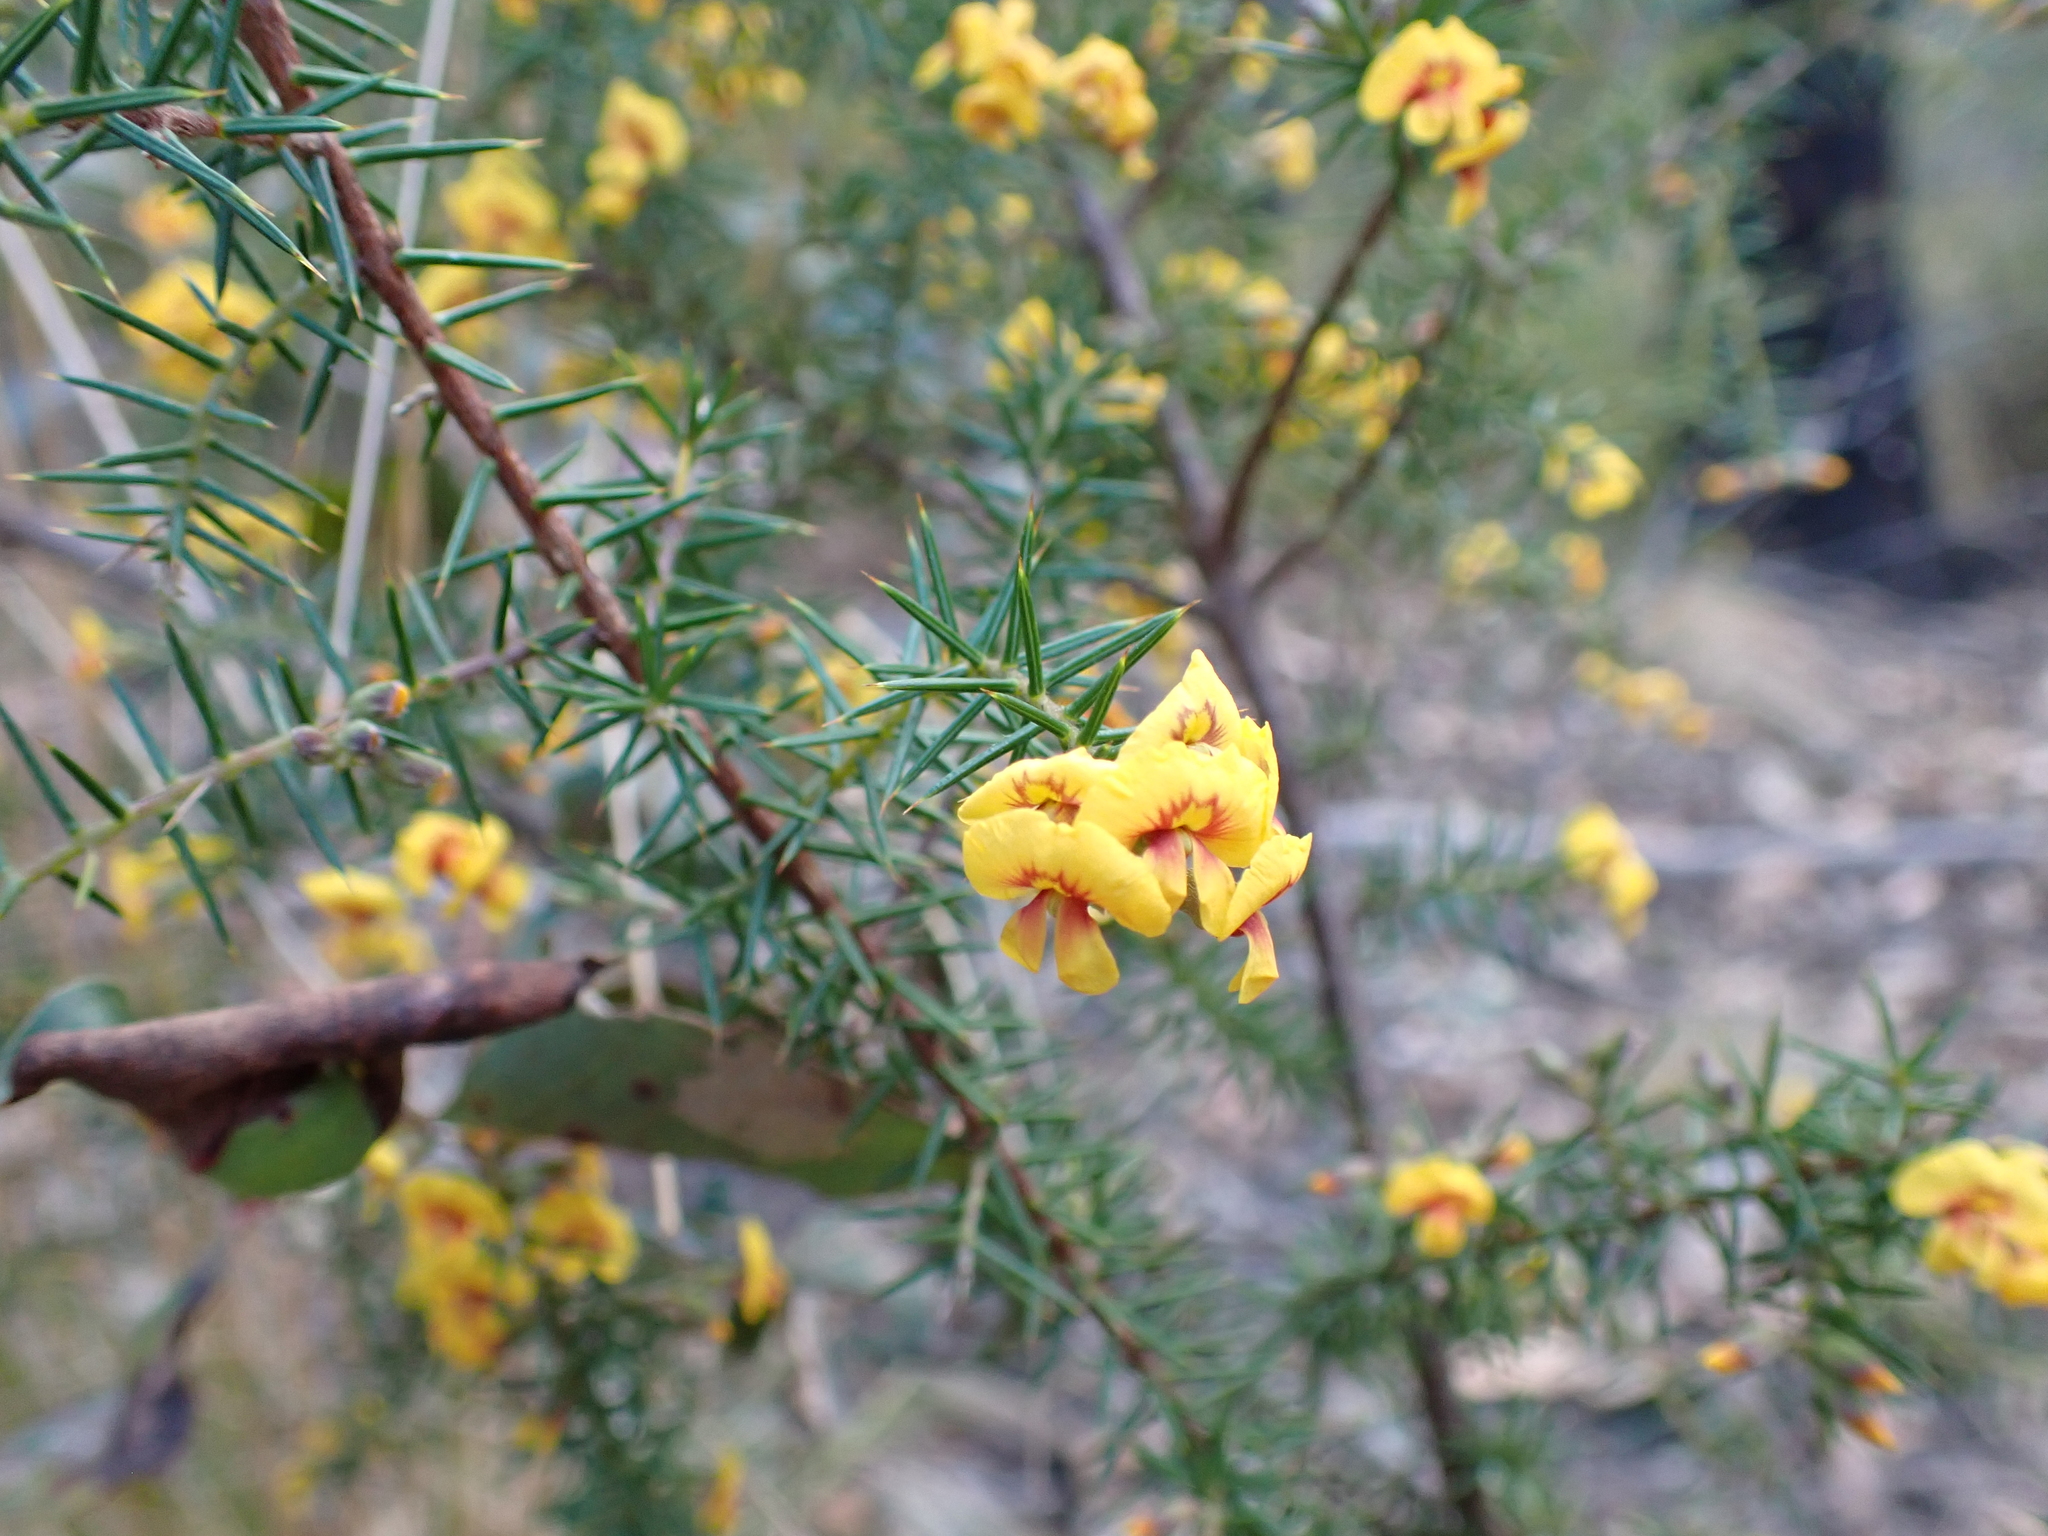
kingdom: Plantae
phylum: Tracheophyta
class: Magnoliopsida
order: Fabales
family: Fabaceae
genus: Dillwynia
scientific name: Dillwynia juniperina
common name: Prickly parrot pea
